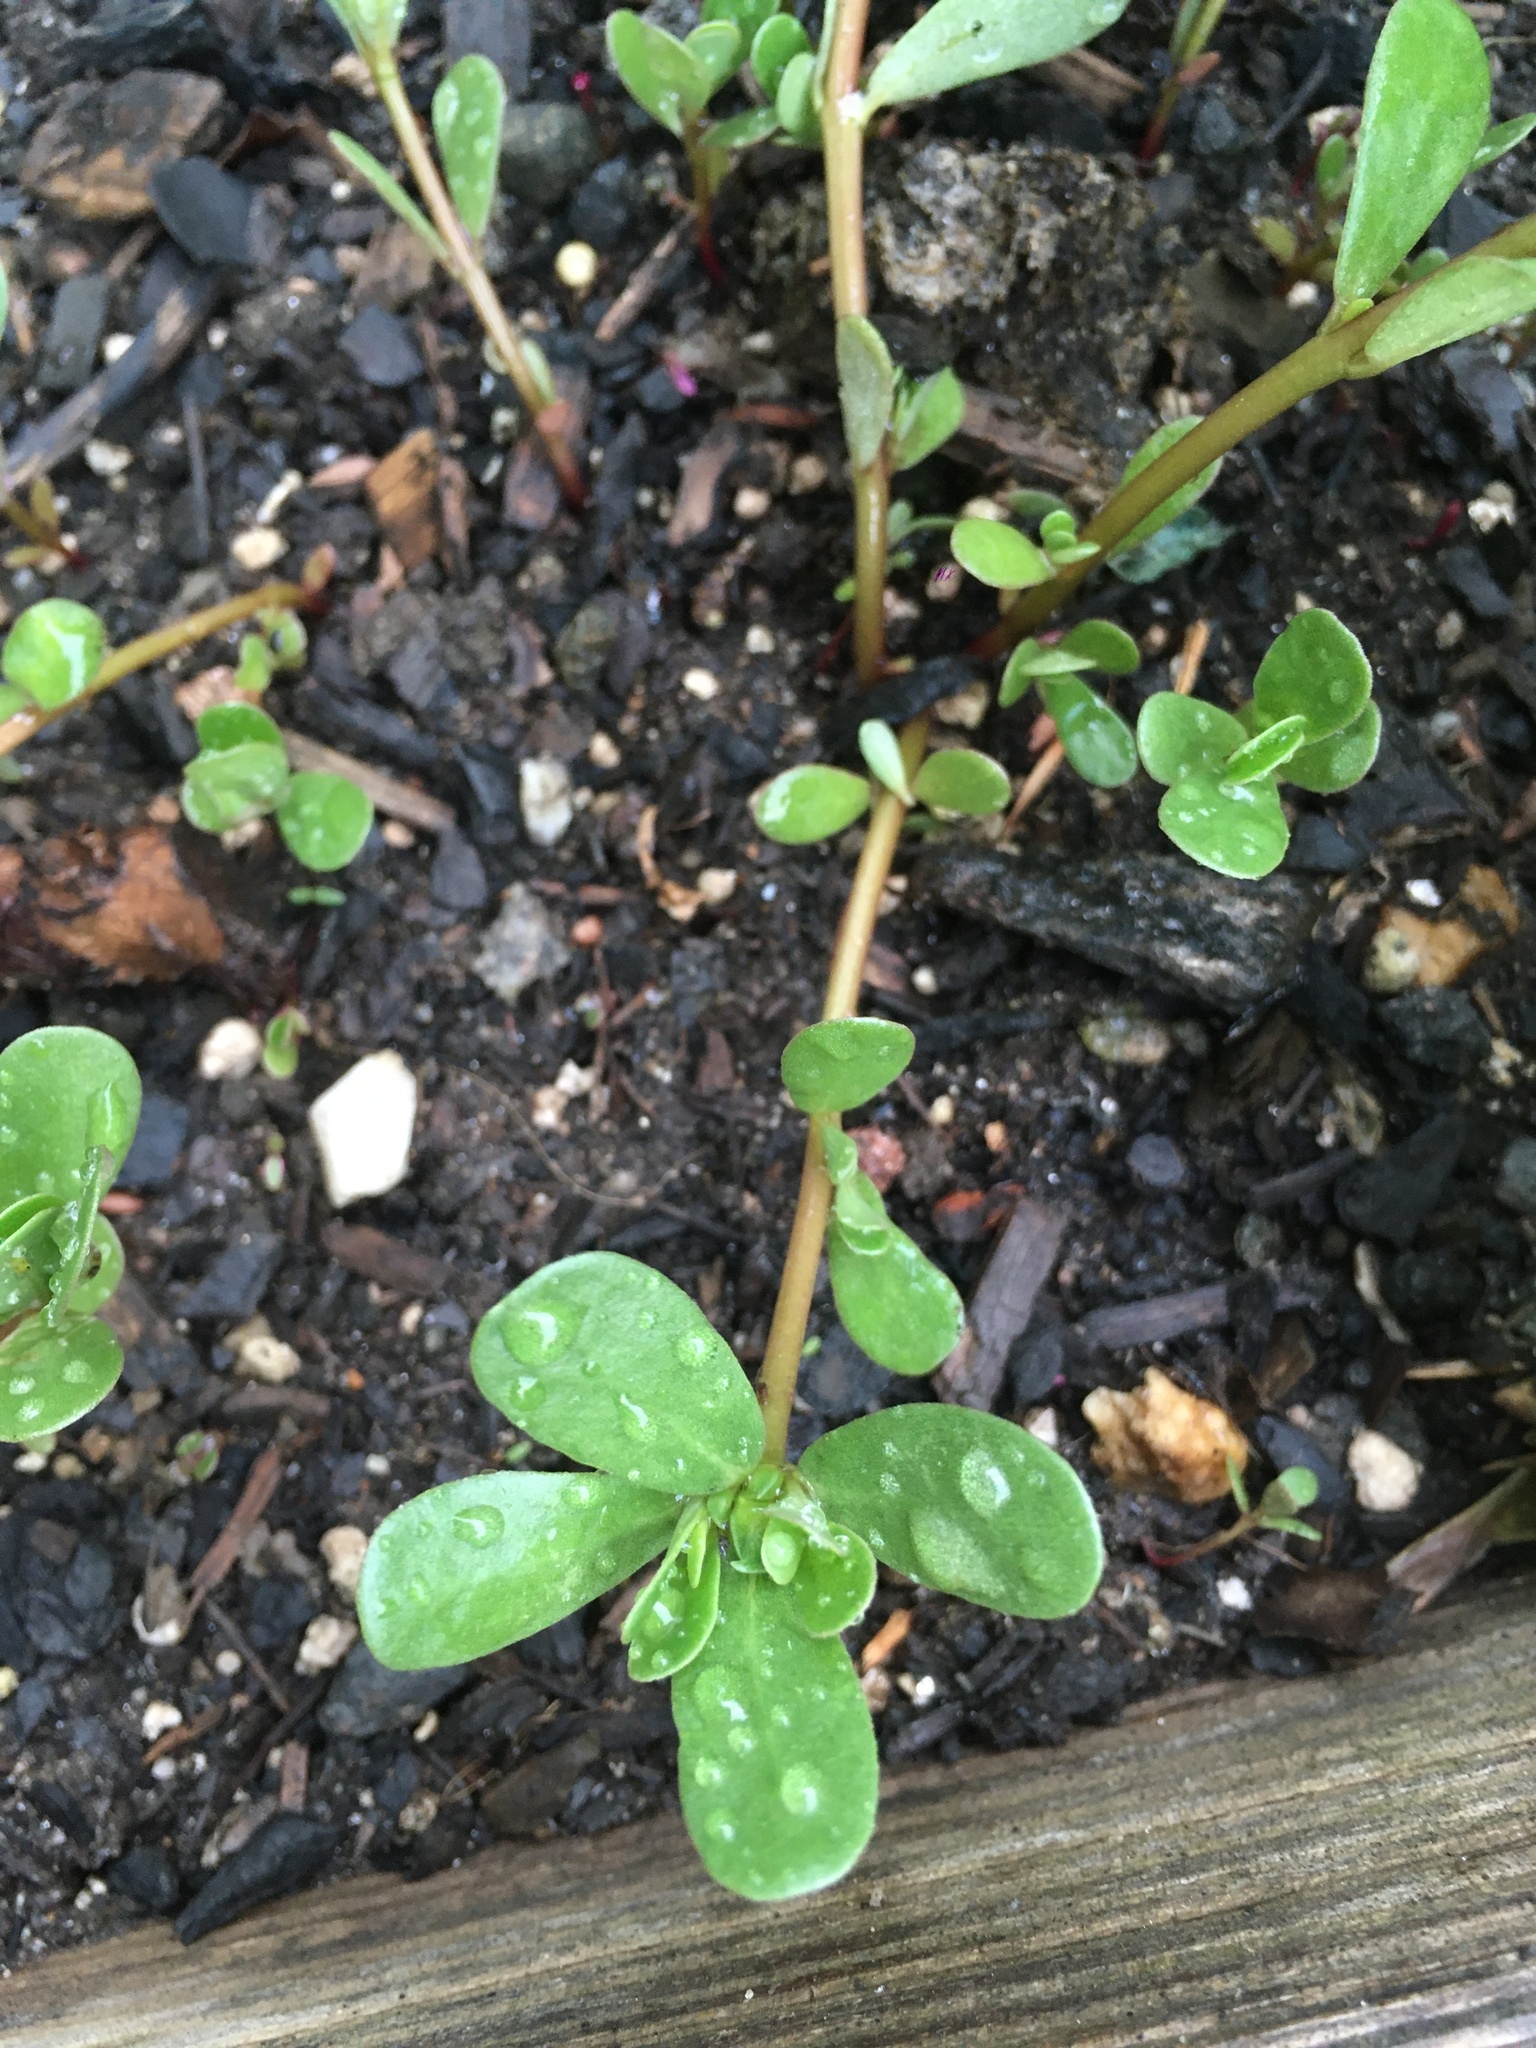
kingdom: Plantae
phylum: Tracheophyta
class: Magnoliopsida
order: Caryophyllales
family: Portulacaceae
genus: Portulaca
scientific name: Portulaca oleracea
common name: Common purslane
